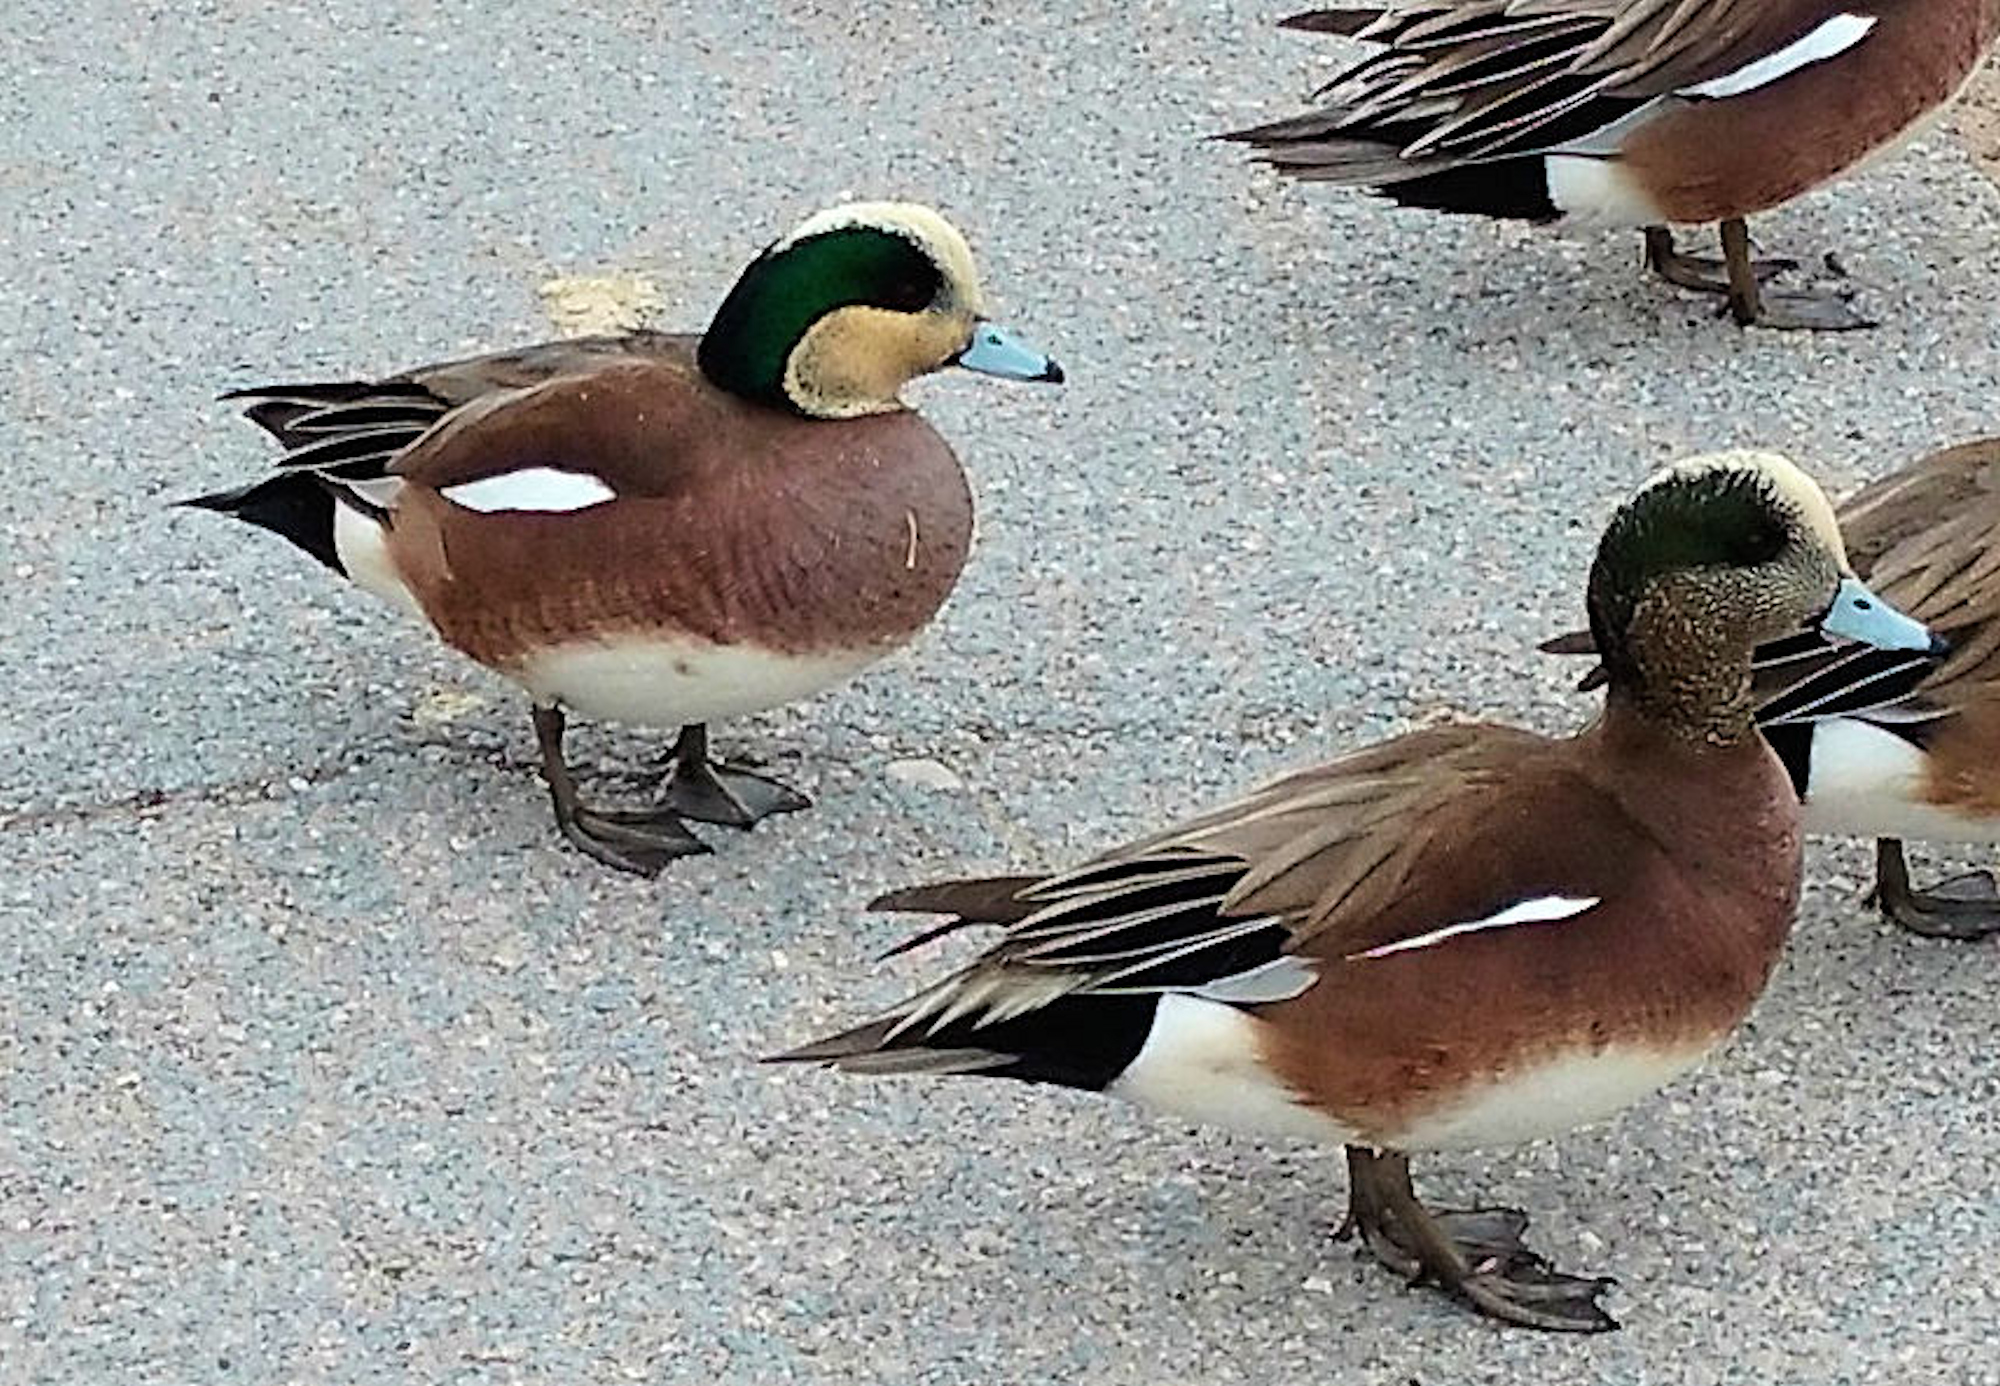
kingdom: Animalia
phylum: Chordata
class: Aves
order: Anseriformes
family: Anatidae
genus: Mareca
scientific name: Mareca americana
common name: American wigeon
